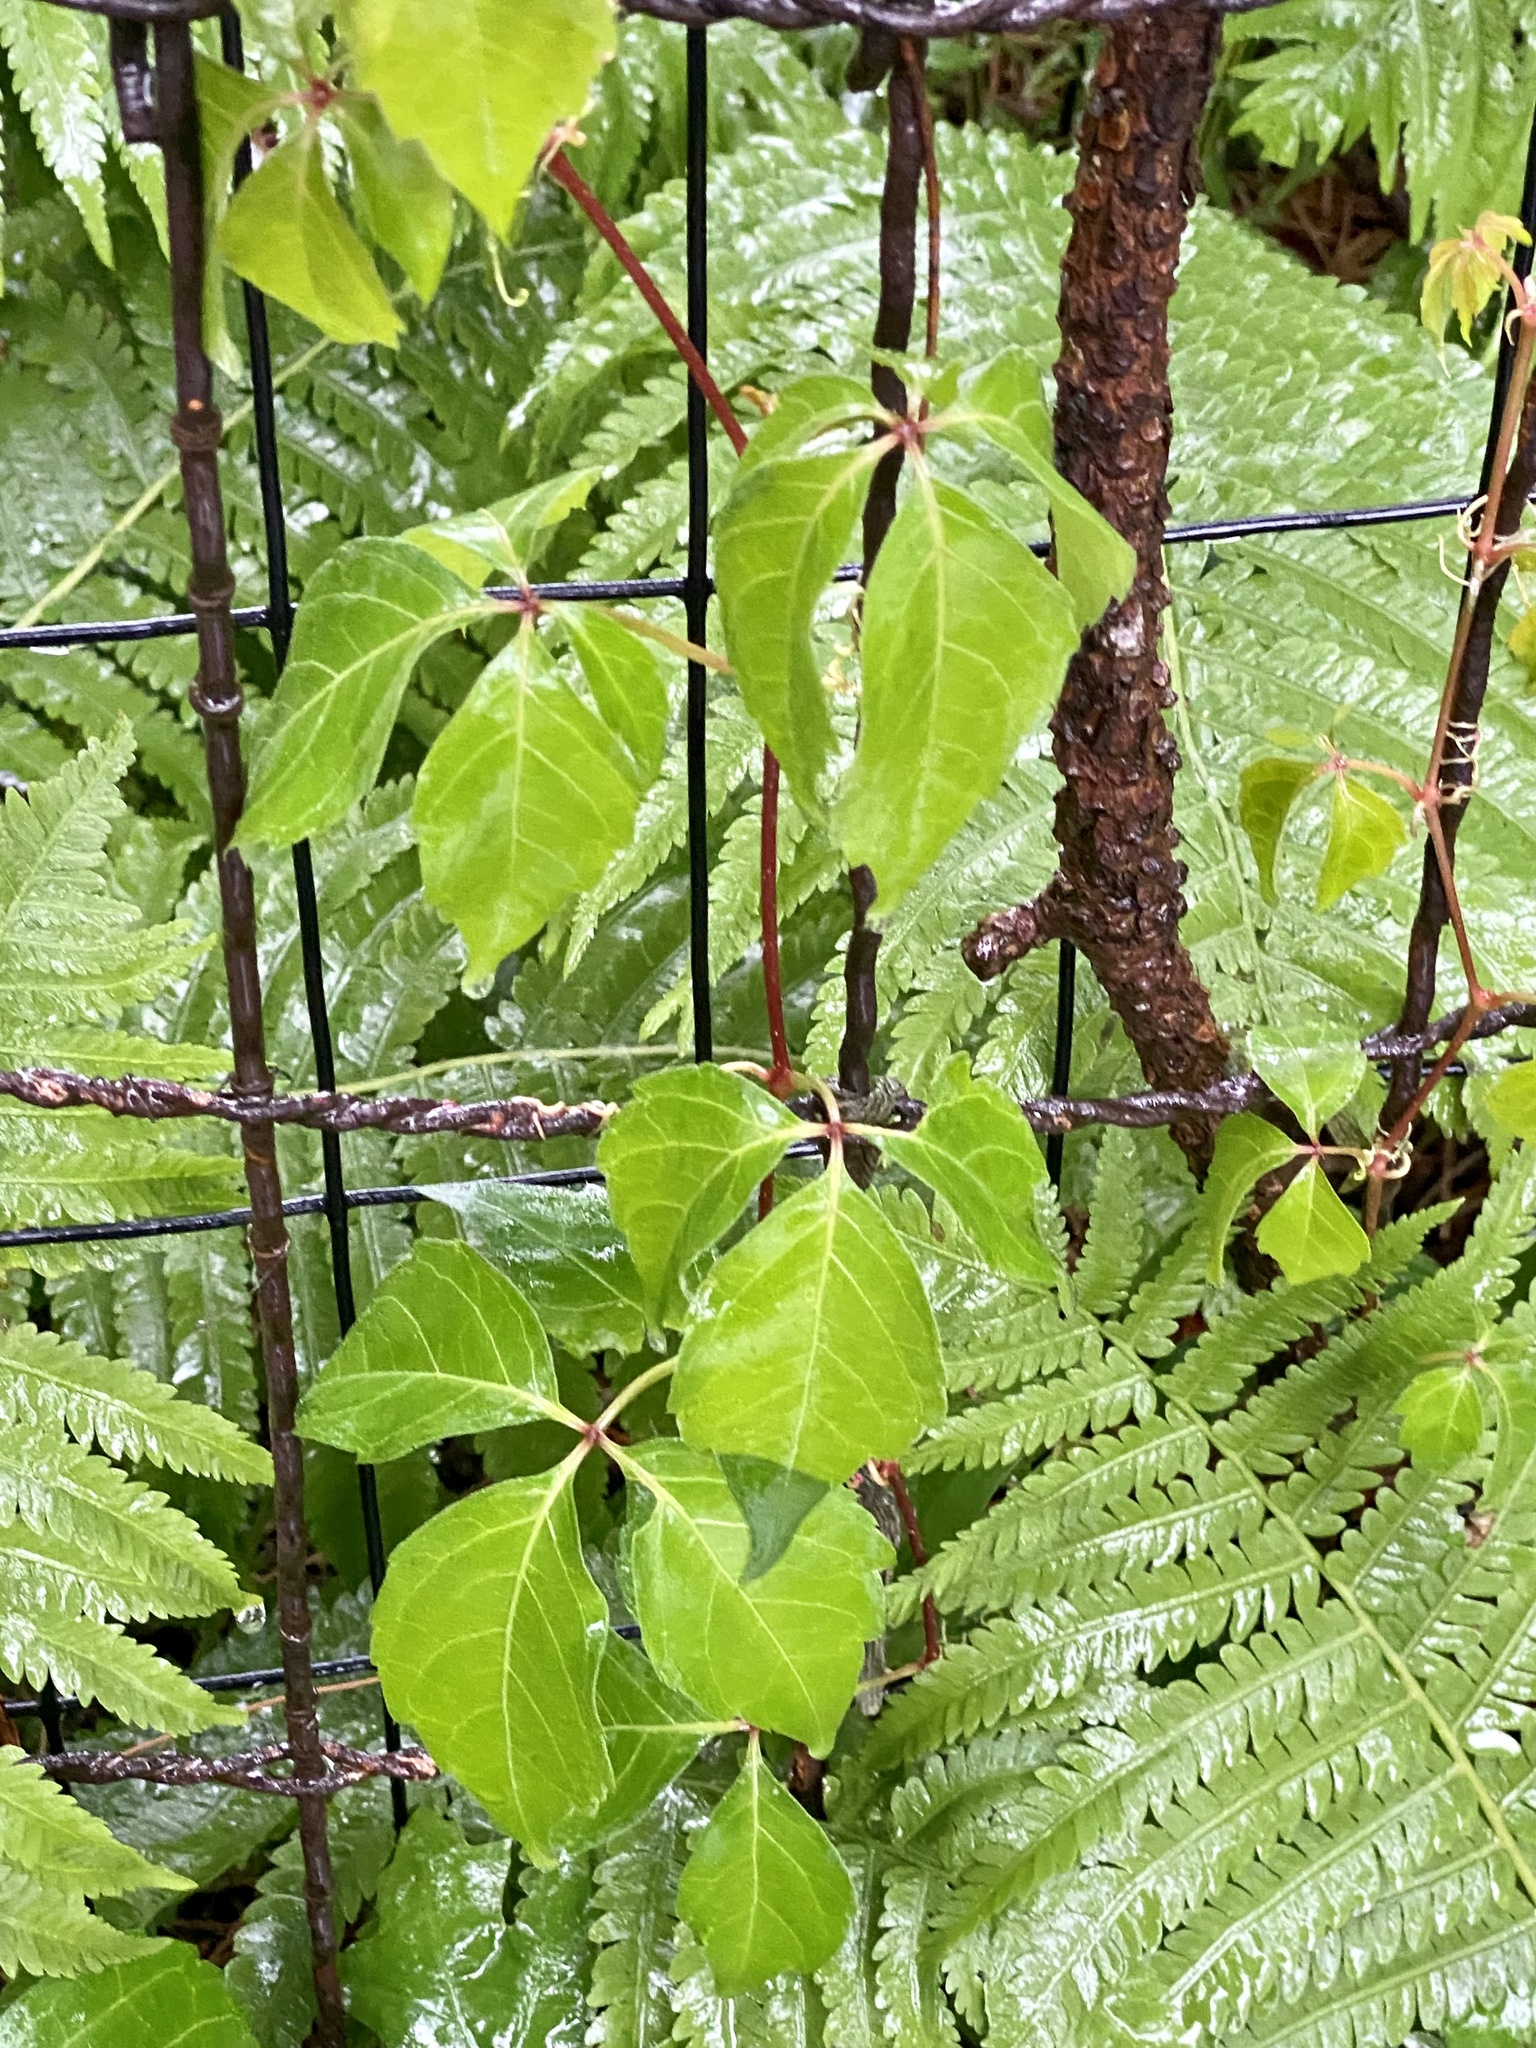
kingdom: Plantae
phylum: Tracheophyta
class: Magnoliopsida
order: Vitales
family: Vitaceae
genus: Parthenocissus
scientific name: Parthenocissus quinquefolia
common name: Virginia-creeper
